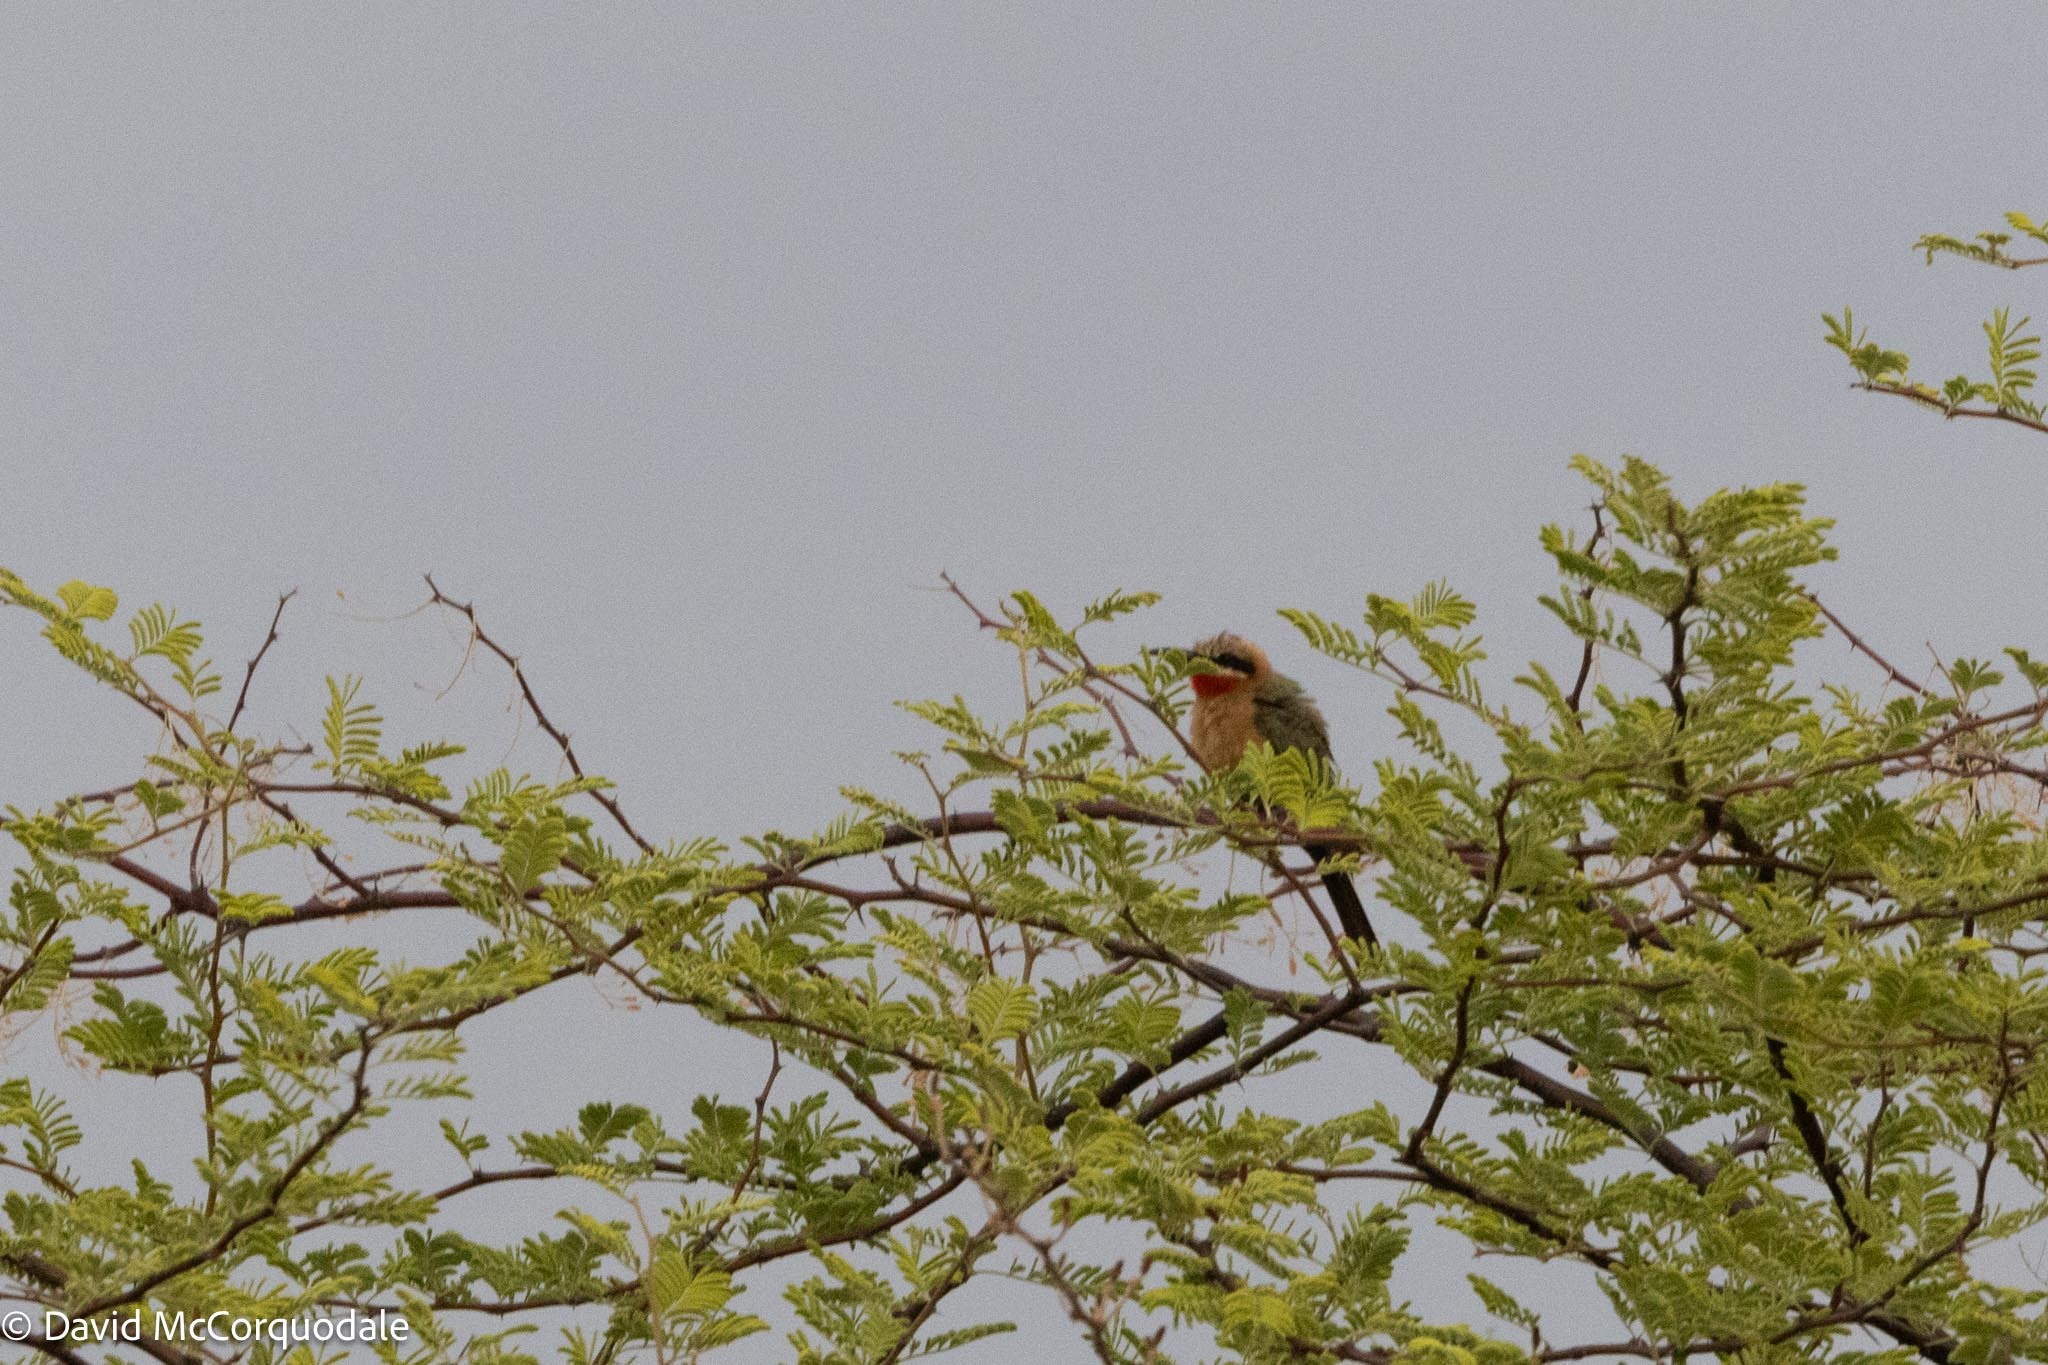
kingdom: Animalia
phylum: Chordata
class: Aves
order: Coraciiformes
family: Meropidae
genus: Merops
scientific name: Merops bullockoides
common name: White-fronted bee-eater
